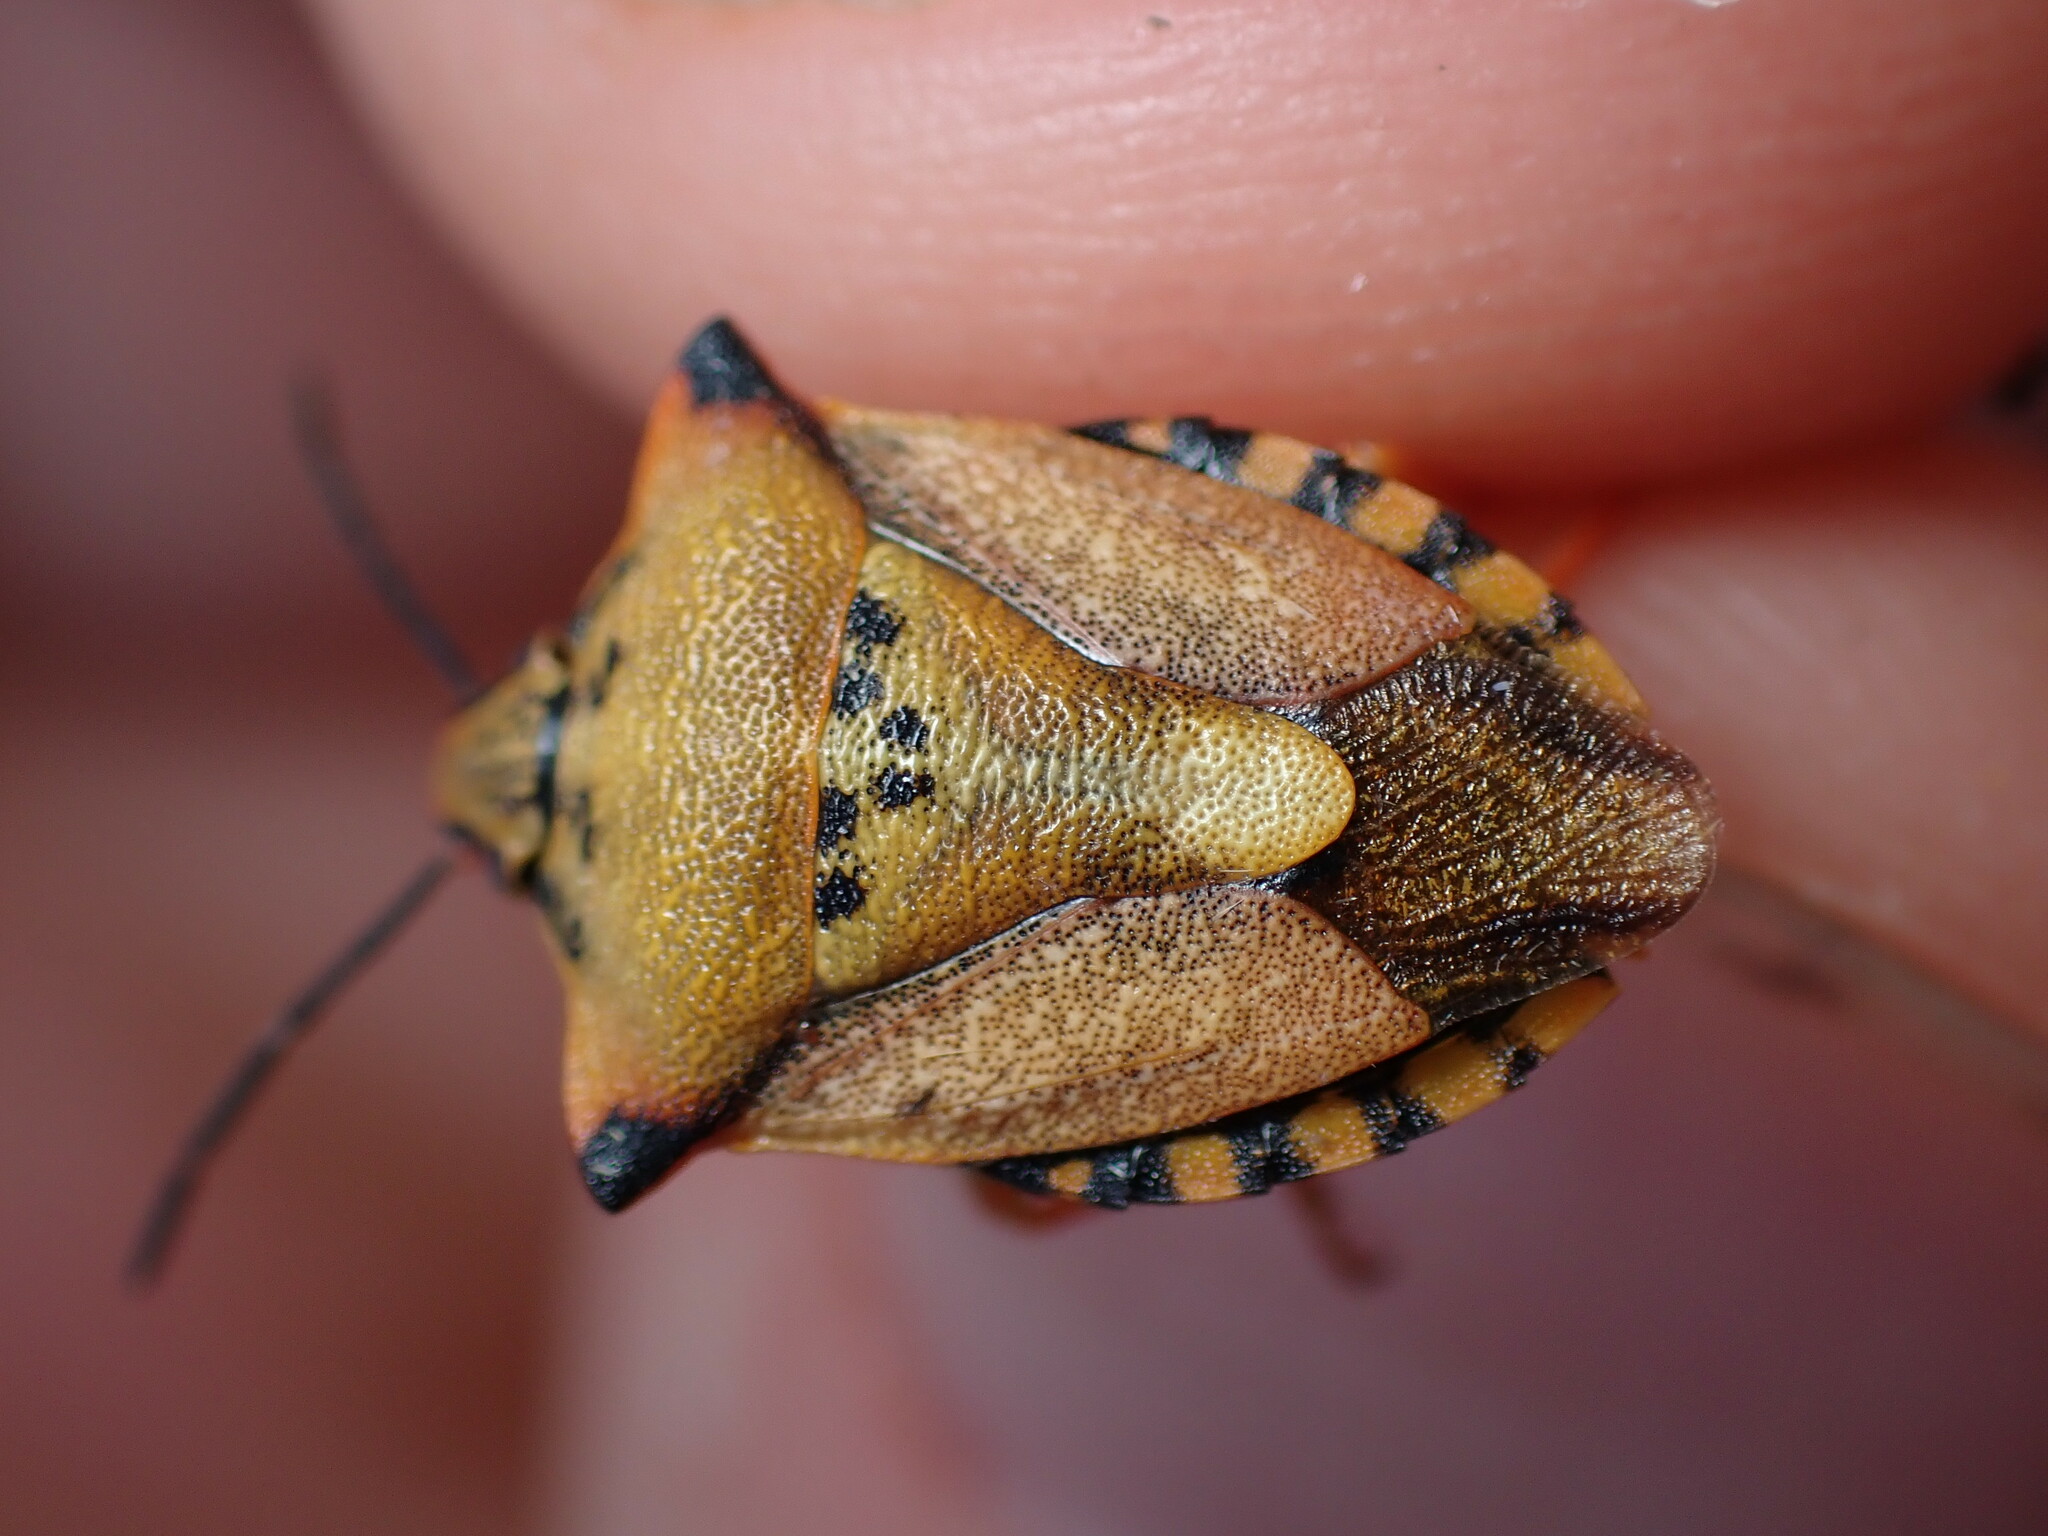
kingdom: Animalia
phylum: Arthropoda
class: Insecta
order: Hemiptera
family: Pentatomidae
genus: Carpocoris
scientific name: Carpocoris mediterraneus
